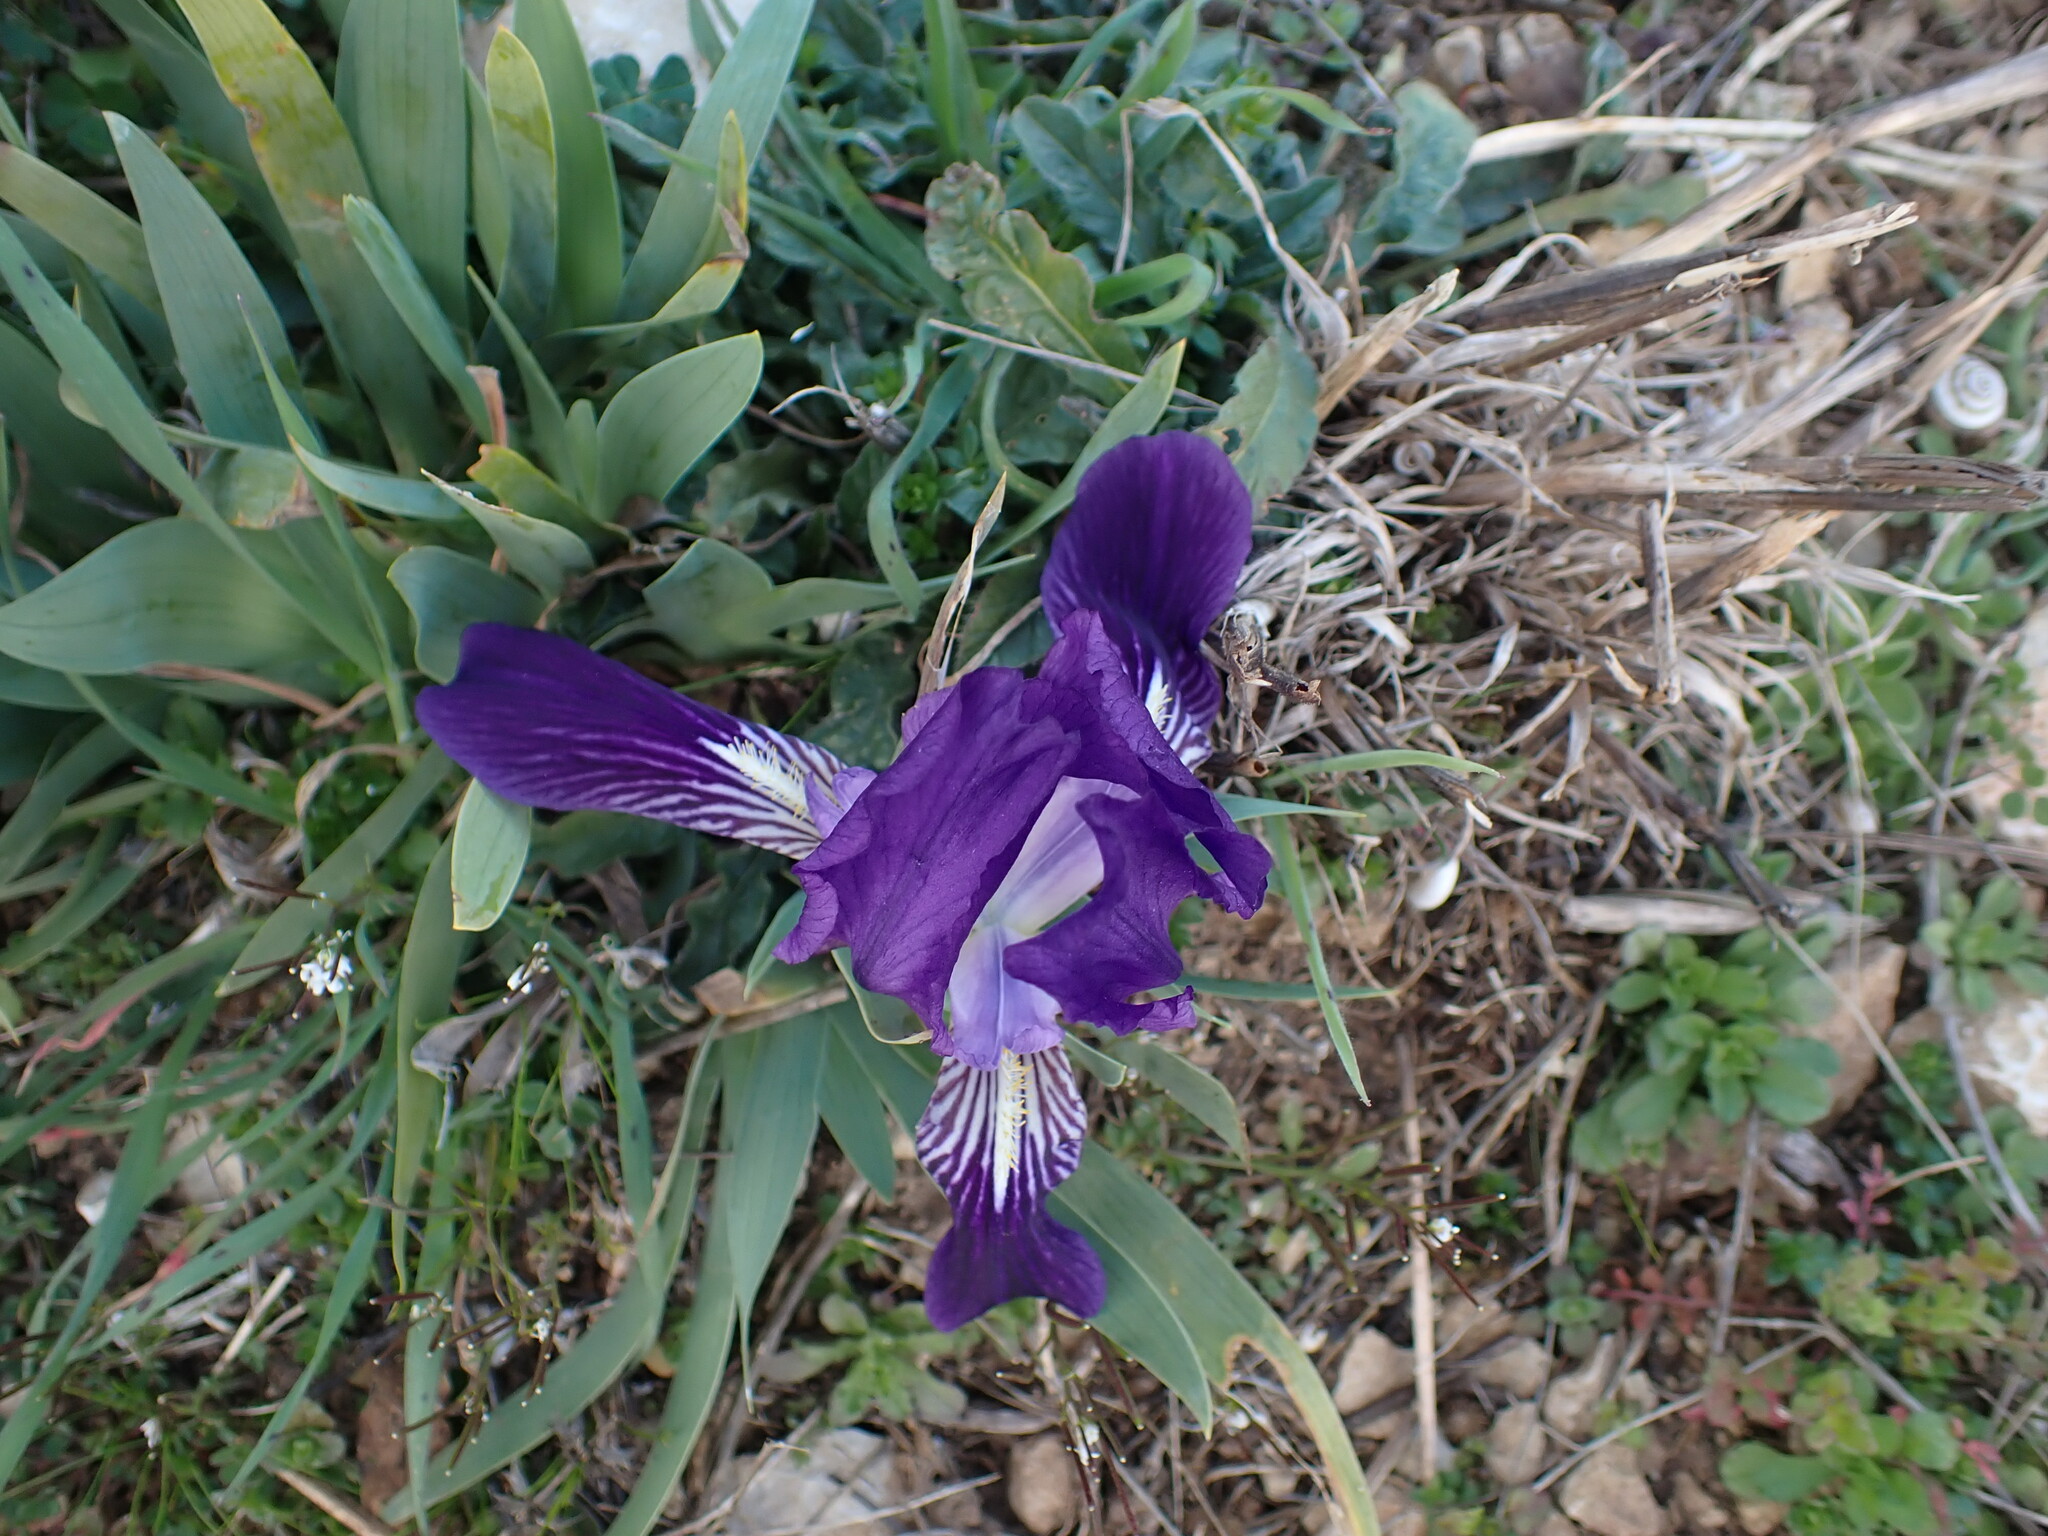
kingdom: Plantae
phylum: Tracheophyta
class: Liliopsida
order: Asparagales
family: Iridaceae
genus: Iris
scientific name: Iris lutescens
